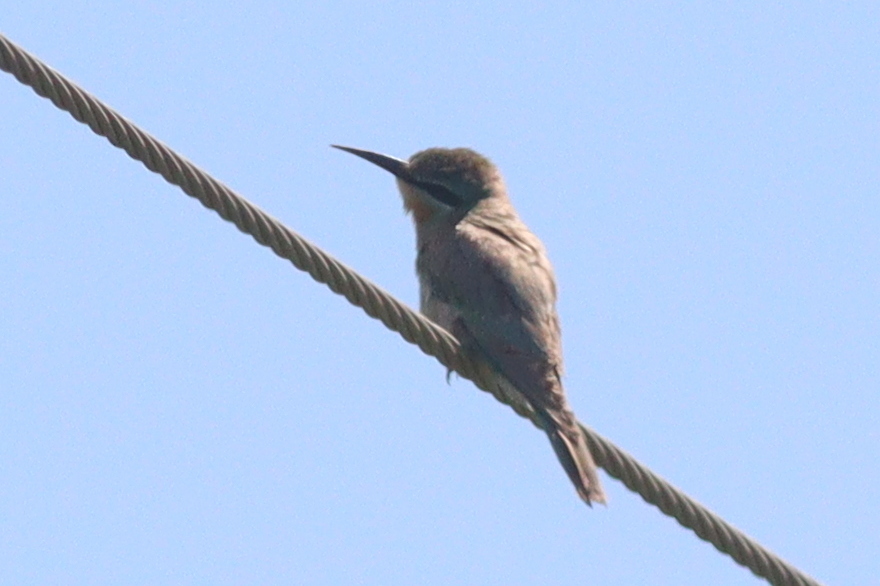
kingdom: Animalia
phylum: Chordata
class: Aves
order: Coraciiformes
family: Meropidae
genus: Merops
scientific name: Merops persicus
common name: Blue-cheeked bee-eater
